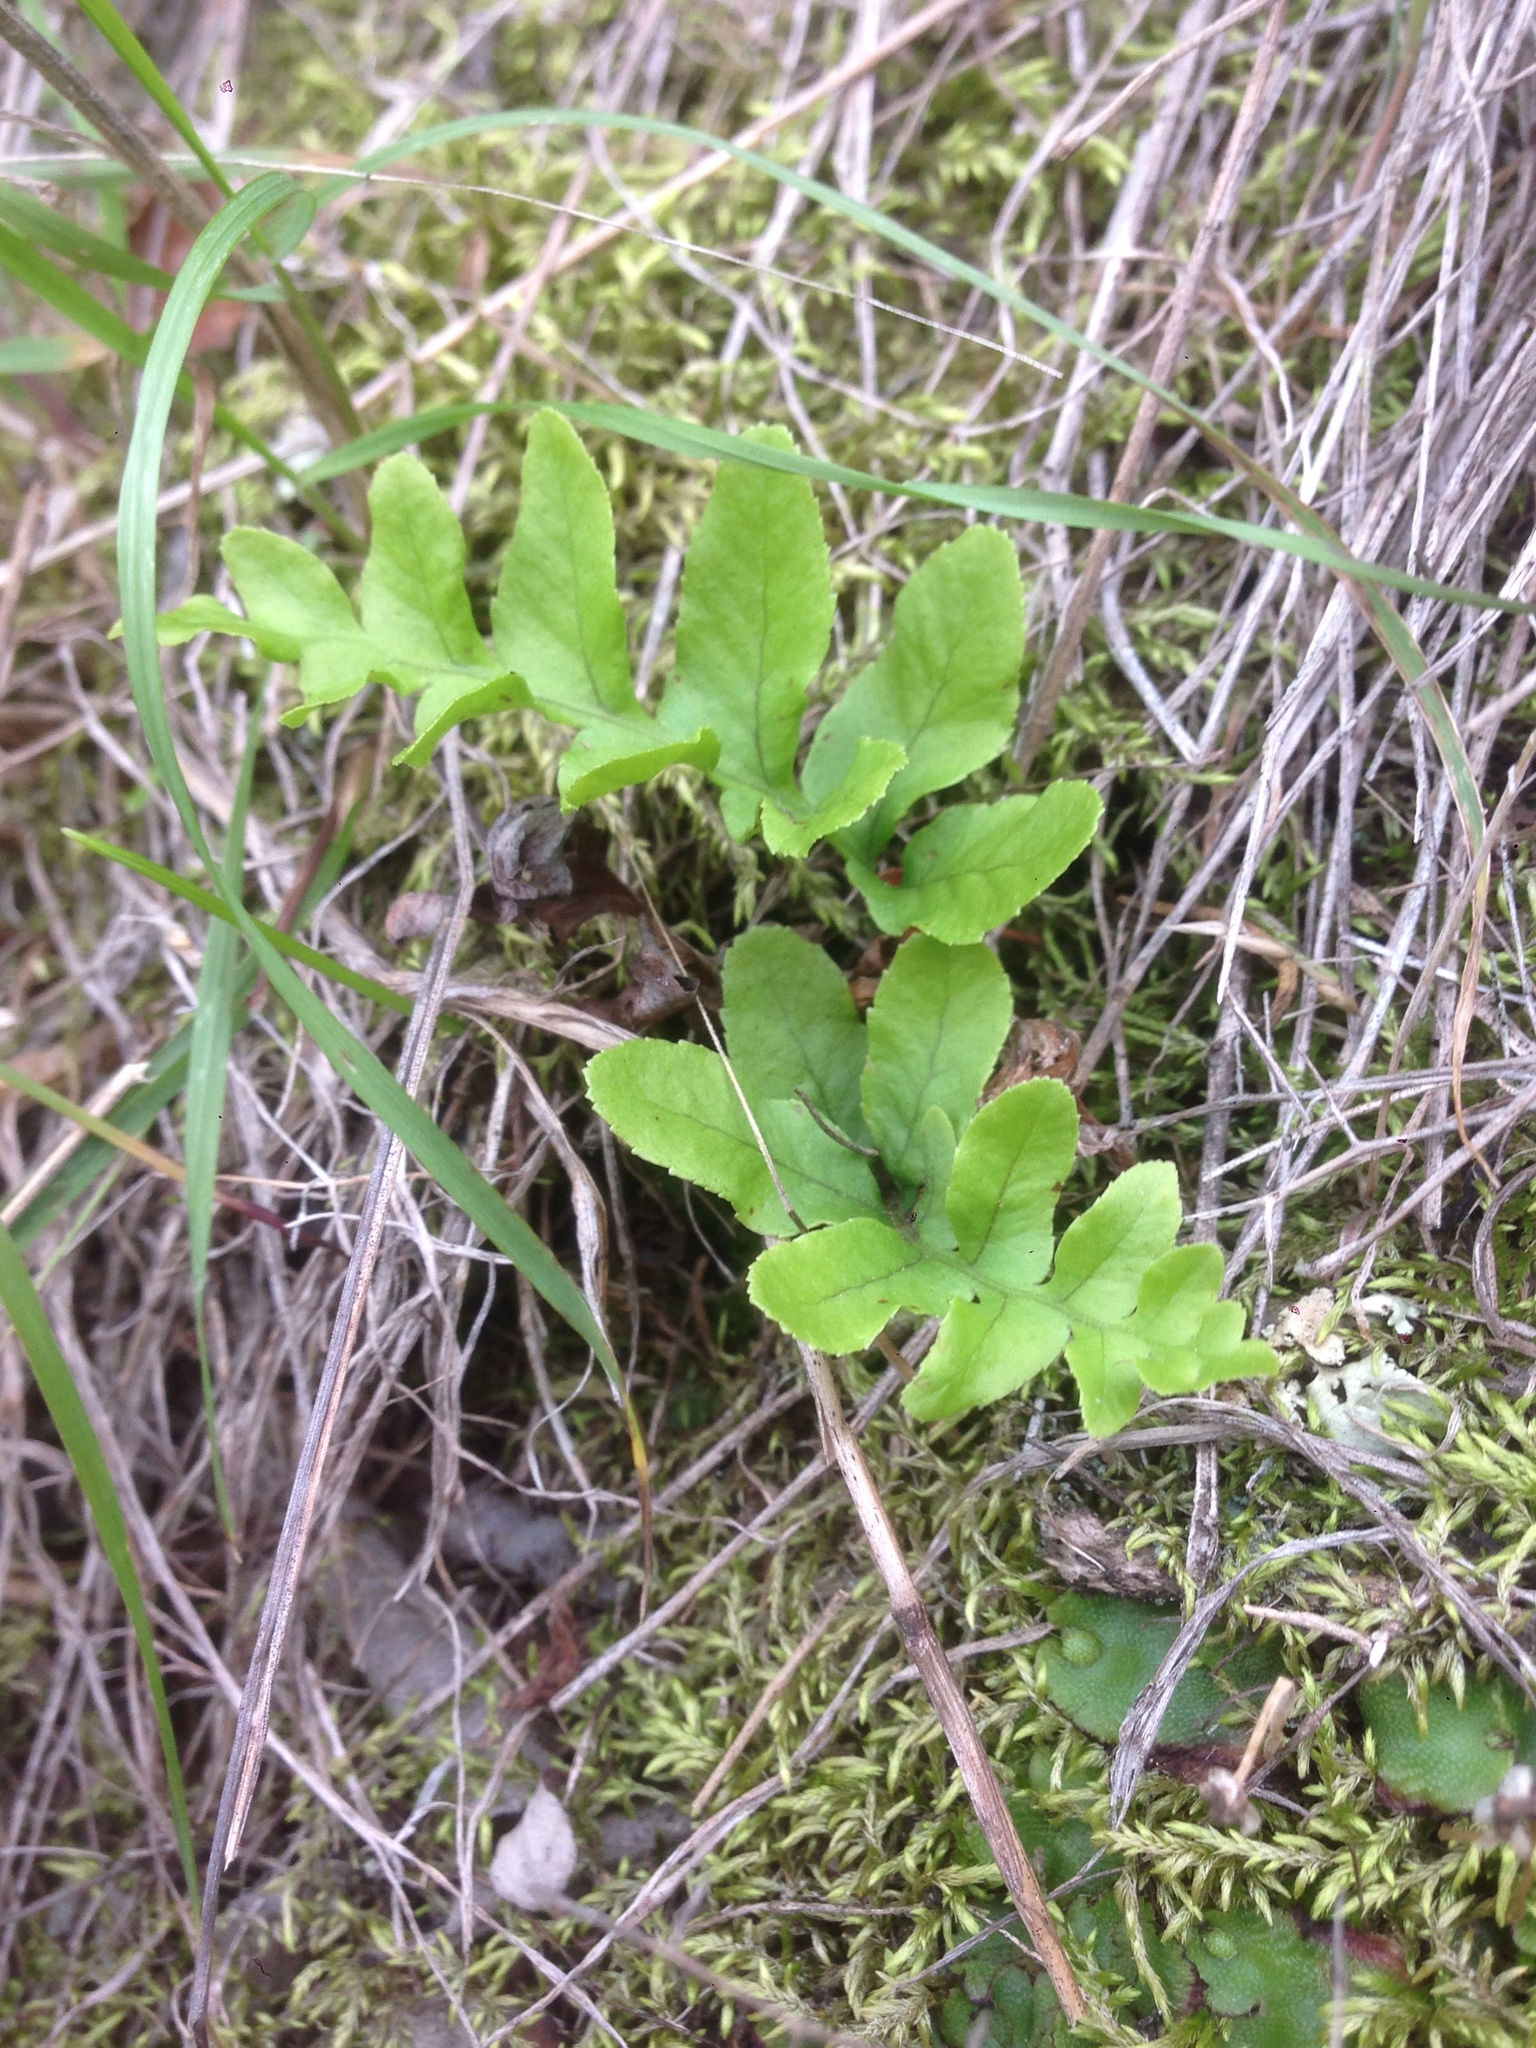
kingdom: Plantae
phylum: Tracheophyta
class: Polypodiopsida
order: Polypodiales
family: Polypodiaceae
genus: Polypodium
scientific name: Polypodium californicum
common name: California polypody
